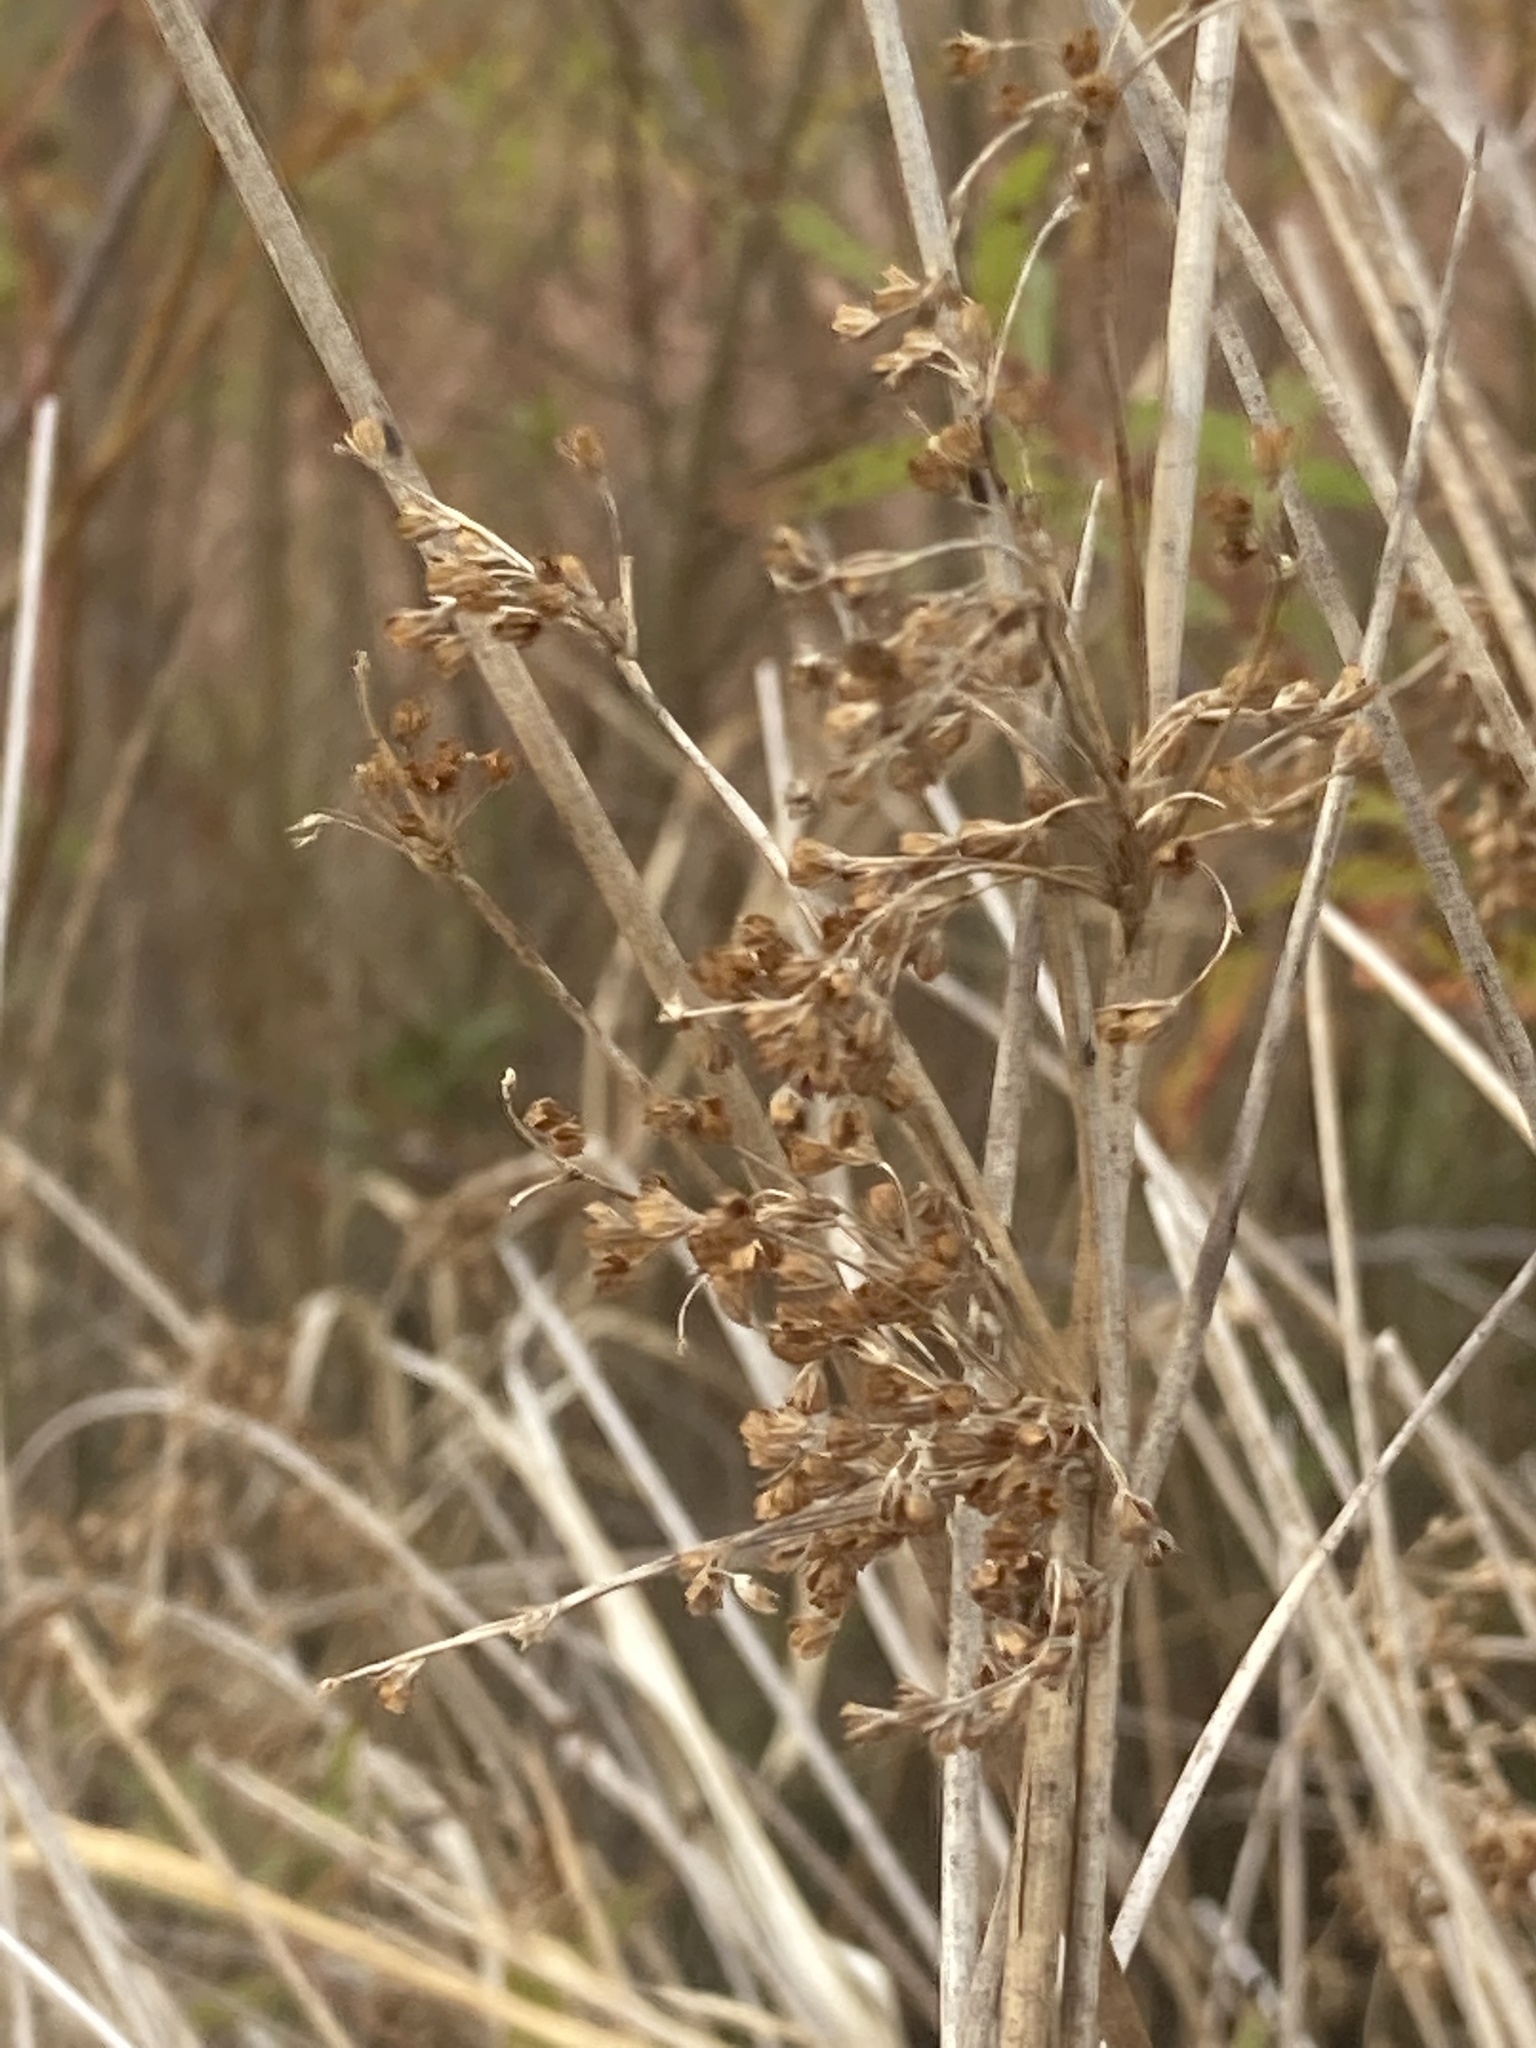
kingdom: Plantae
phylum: Tracheophyta
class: Liliopsida
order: Poales
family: Juncaceae
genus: Juncus
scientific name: Juncus effusus
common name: Soft rush
